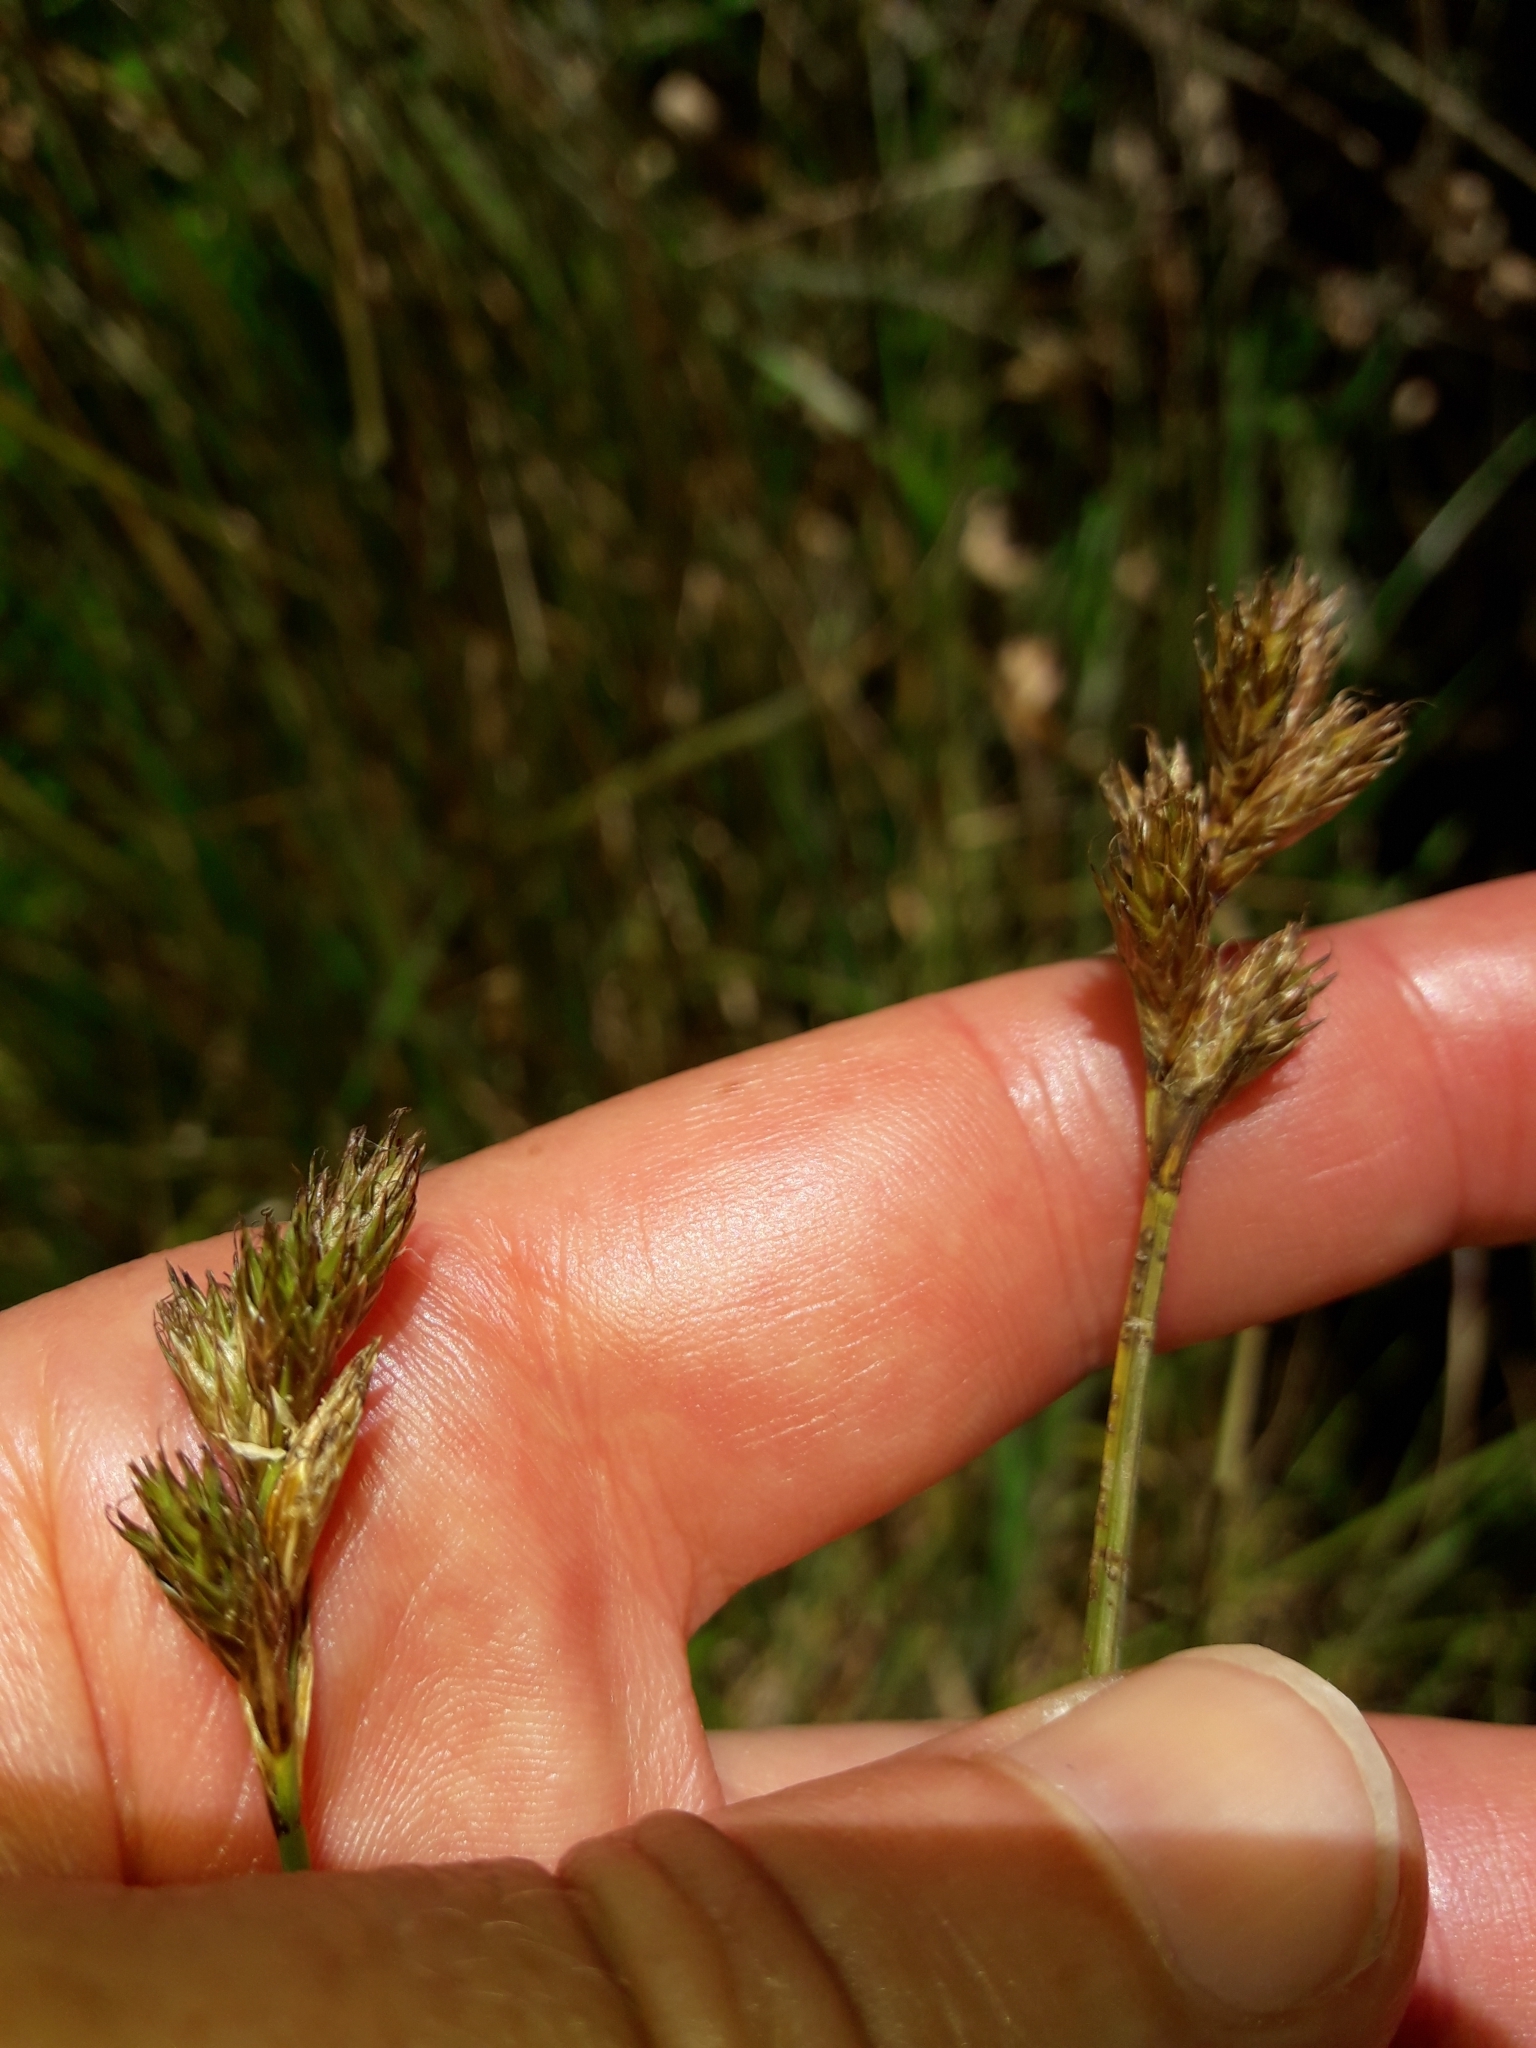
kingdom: Plantae
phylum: Tracheophyta
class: Liliopsida
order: Poales
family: Cyperaceae
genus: Carex
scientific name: Carex leporina
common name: Oval sedge
